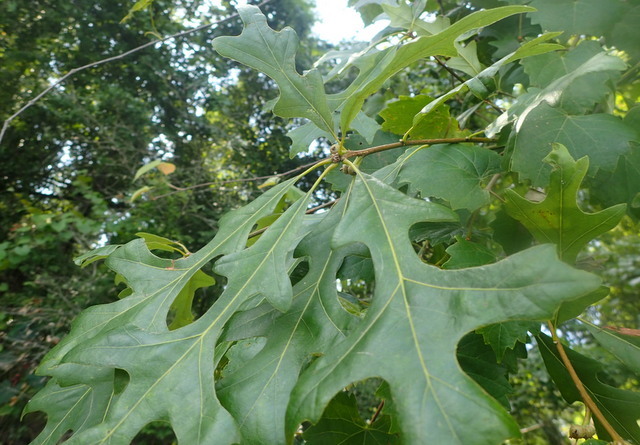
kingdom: Plantae
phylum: Tracheophyta
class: Magnoliopsida
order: Fagales
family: Fagaceae
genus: Quercus
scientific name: Quercus lyrata
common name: Overcup oak
